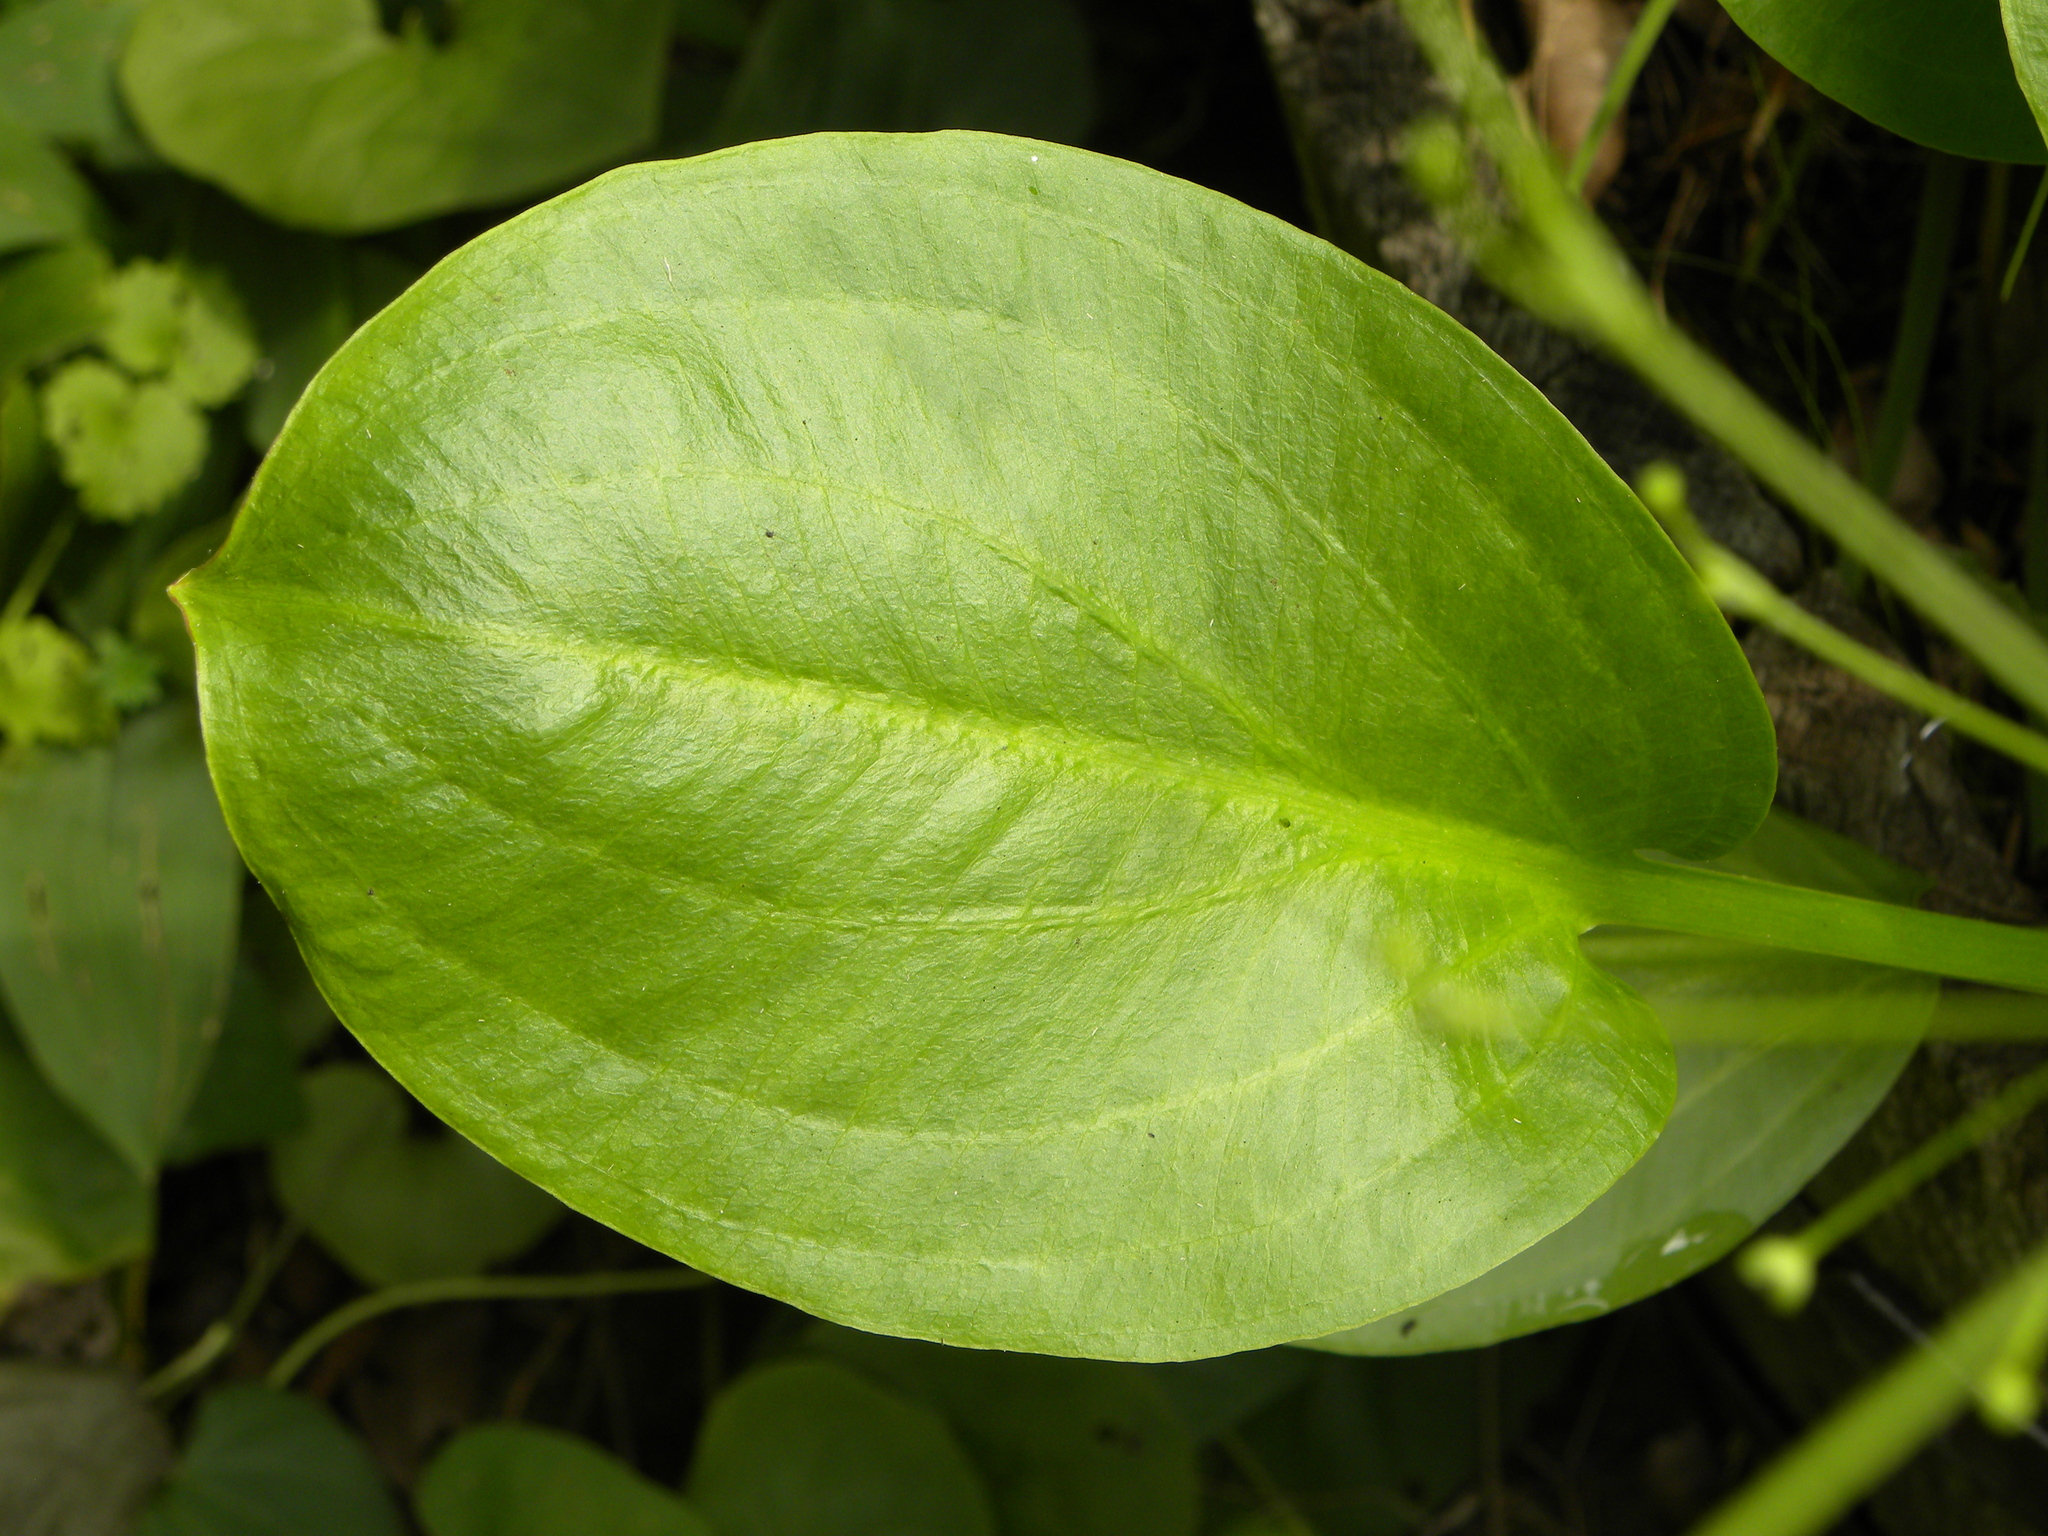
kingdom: Plantae
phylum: Tracheophyta
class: Liliopsida
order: Alismatales
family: Alismataceae
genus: Alisma
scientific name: Alisma subcordatum
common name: Southern water-plantain
